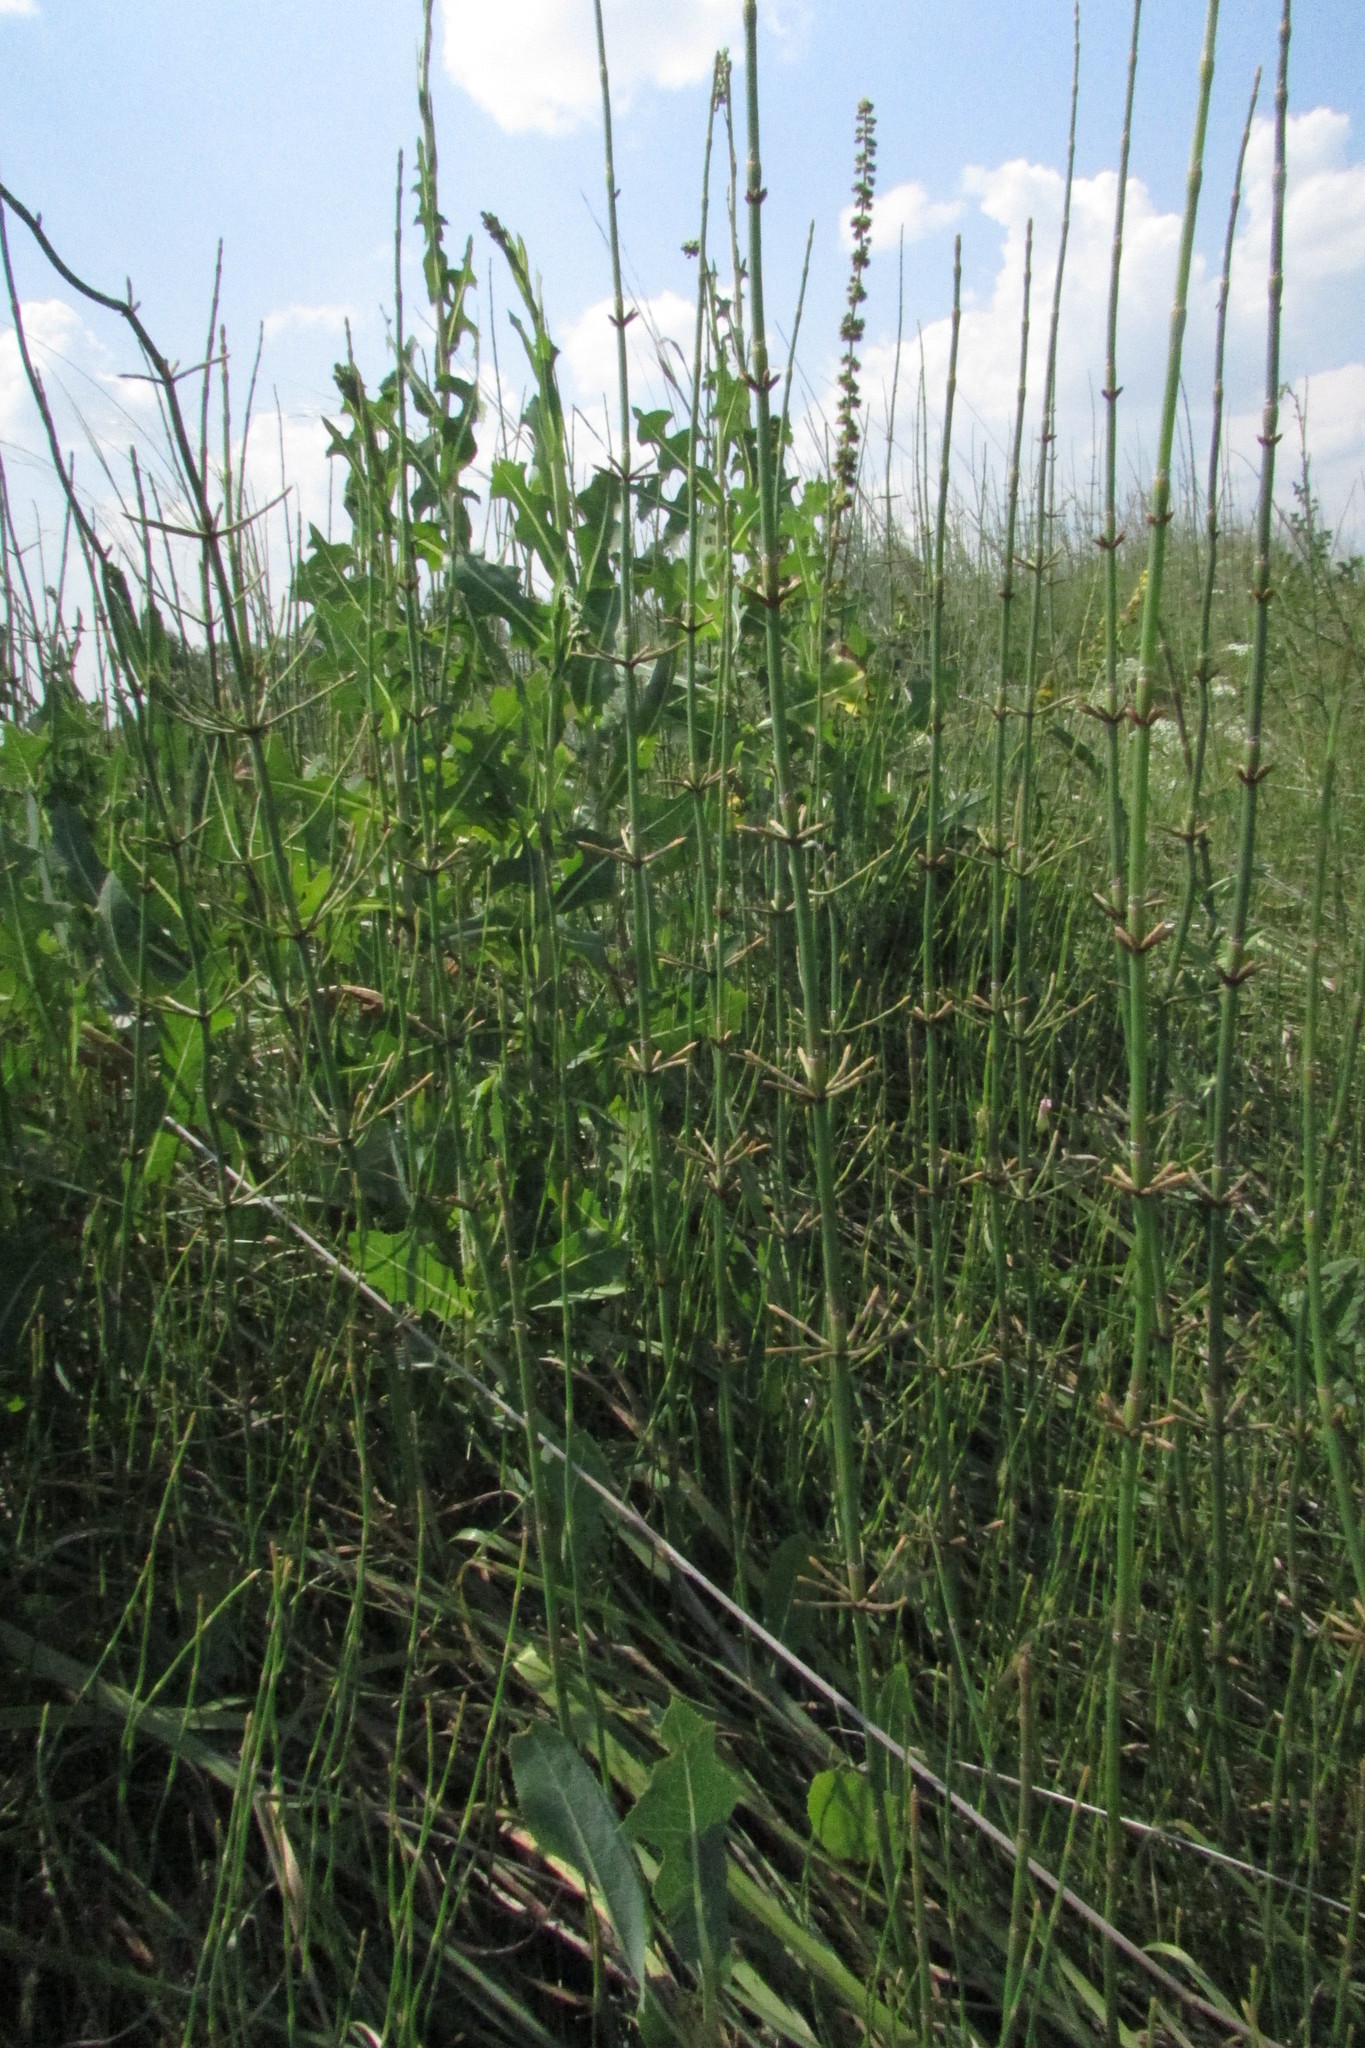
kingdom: Plantae
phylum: Tracheophyta
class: Polypodiopsida
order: Equisetales
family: Equisetaceae
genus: Equisetum
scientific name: Equisetum ramosissimum
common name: Branched horsetail
